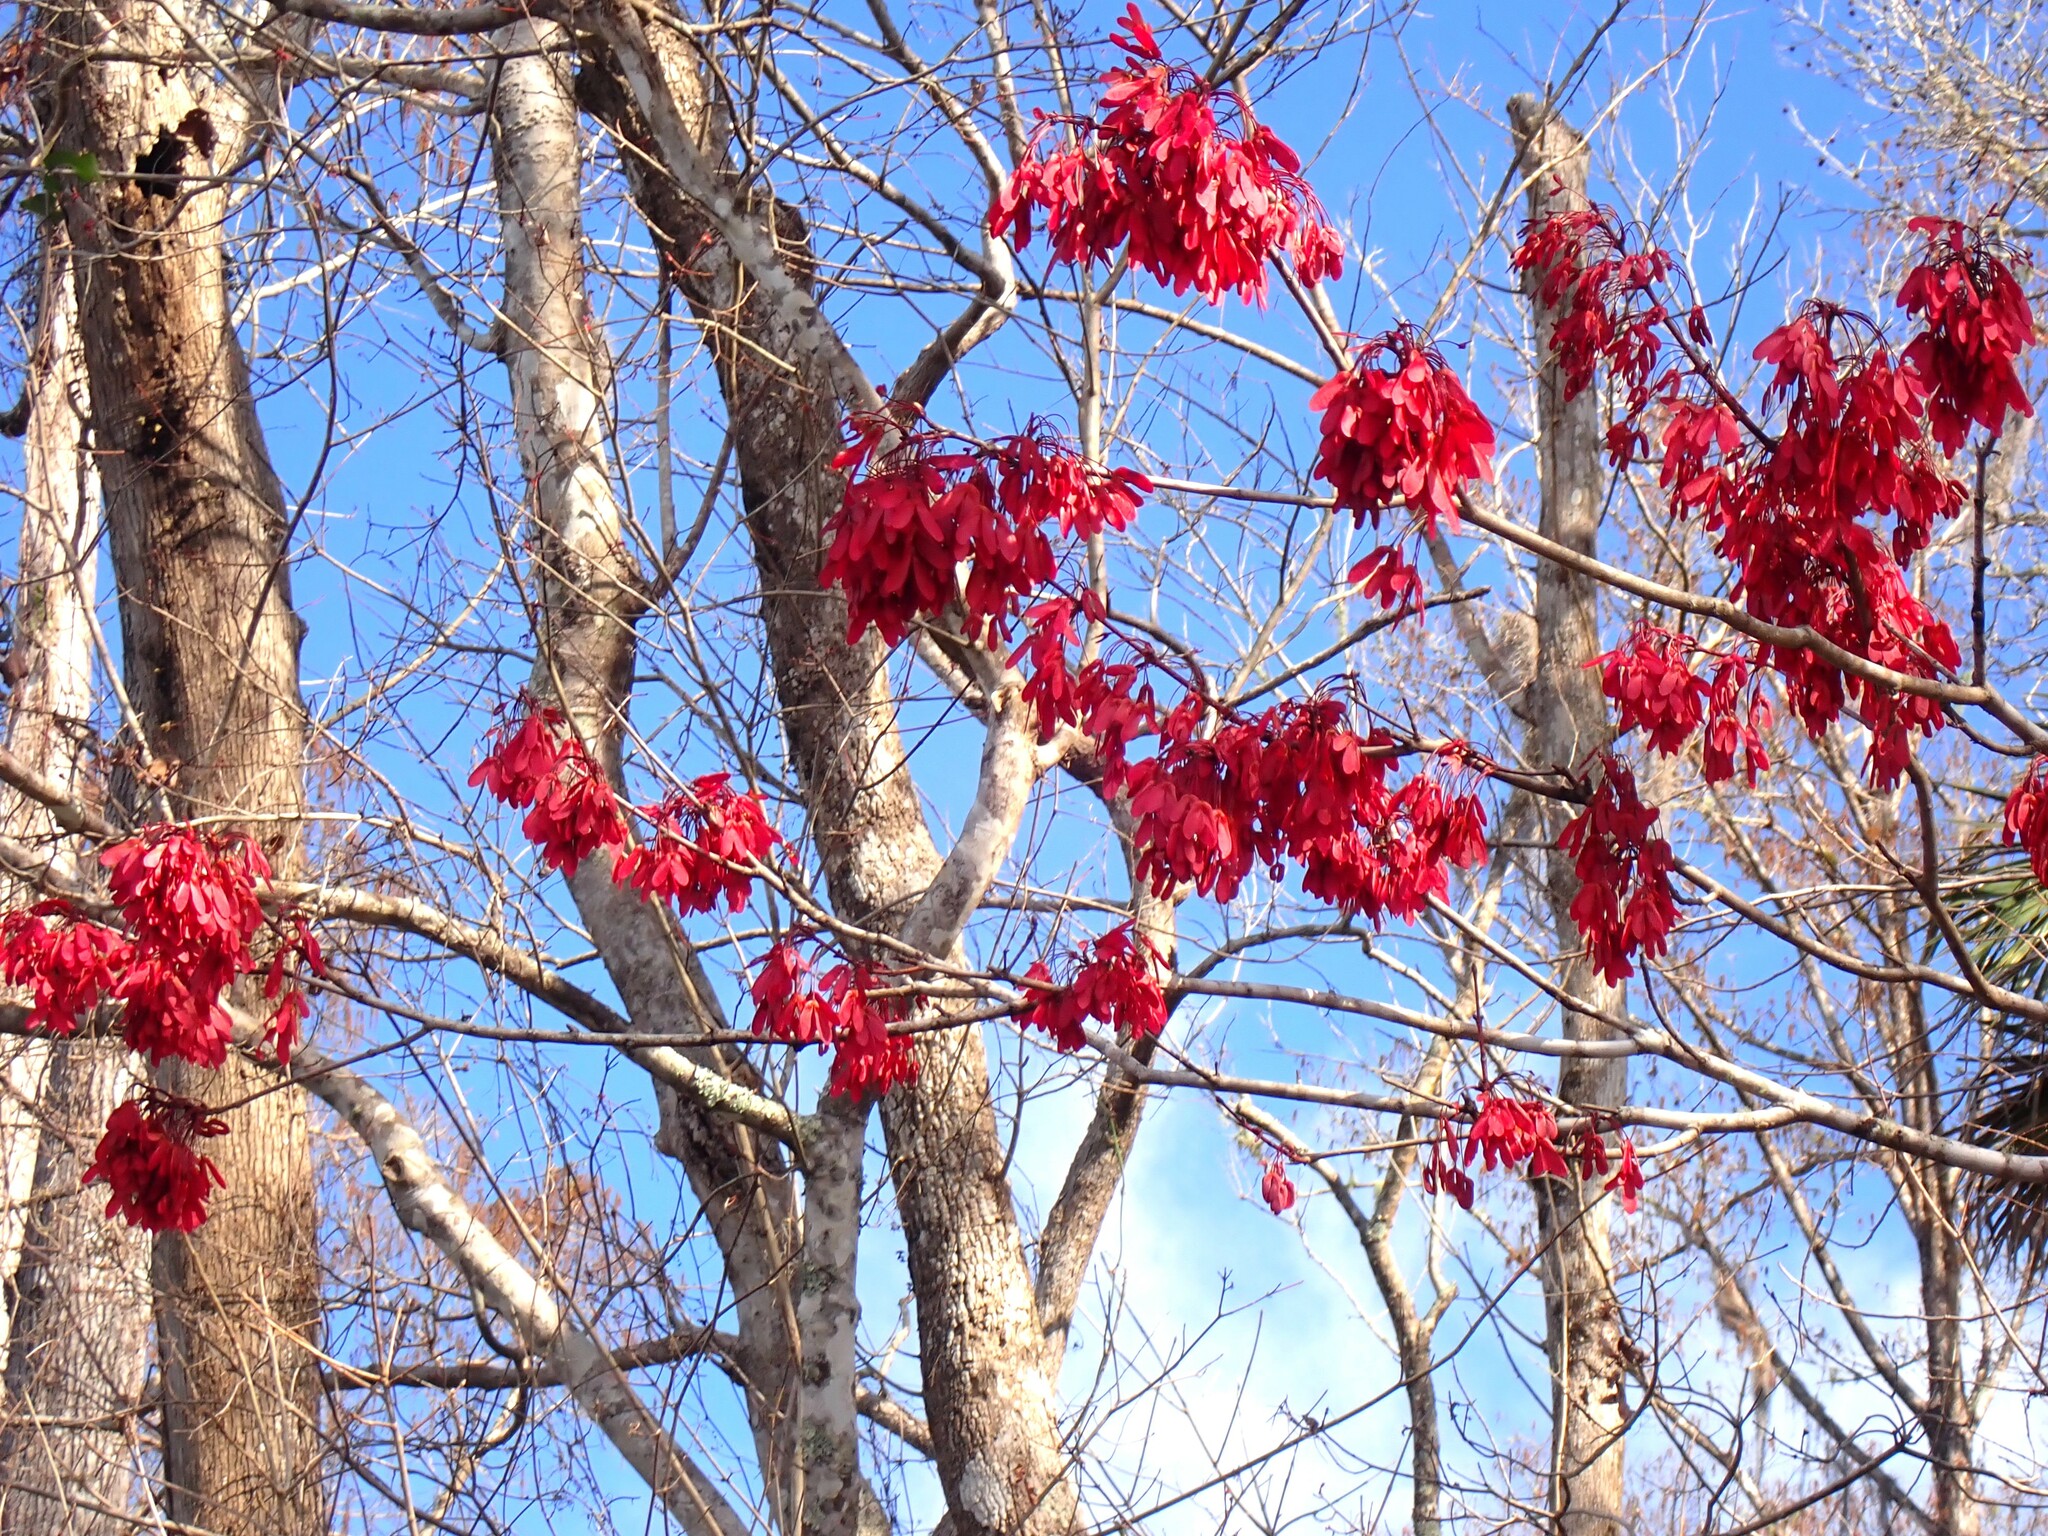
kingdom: Plantae
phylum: Tracheophyta
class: Magnoliopsida
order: Sapindales
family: Sapindaceae
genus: Acer
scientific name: Acer rubrum
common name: Red maple
